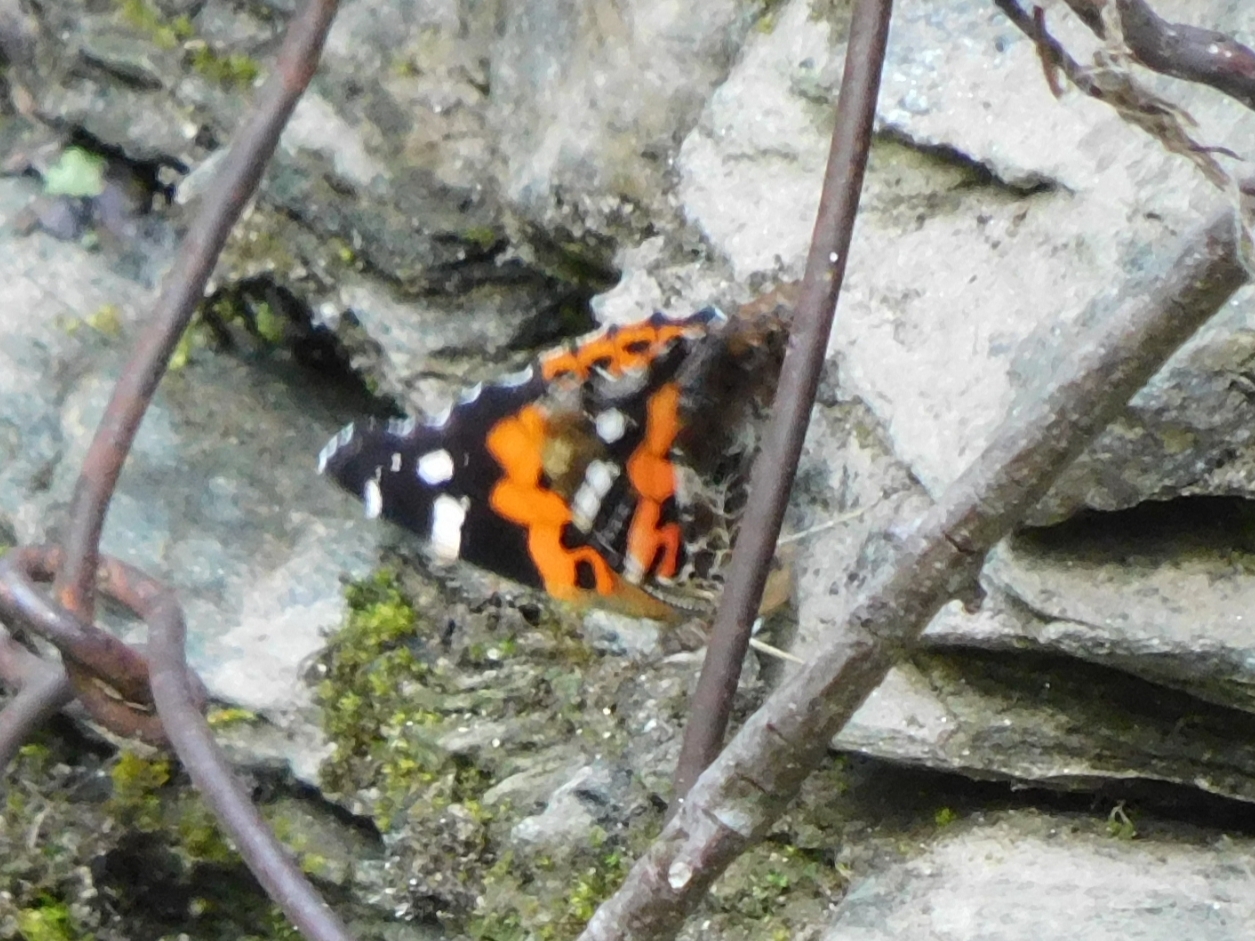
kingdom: Animalia
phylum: Arthropoda
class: Insecta
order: Lepidoptera
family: Nymphalidae
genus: Vanessa
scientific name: Vanessa indica
